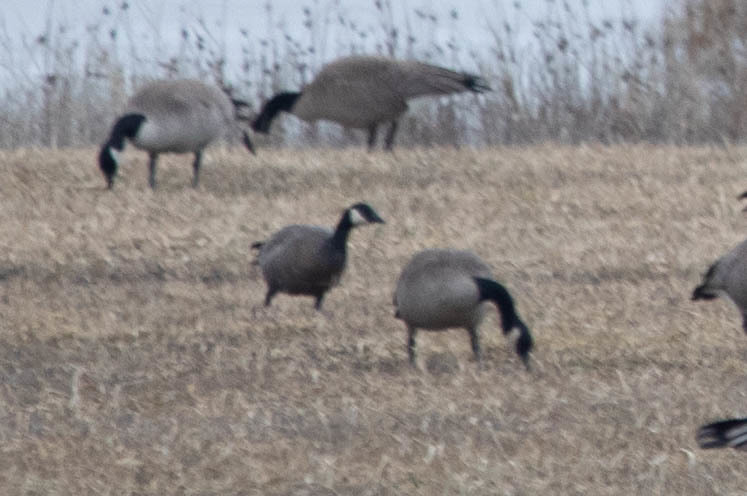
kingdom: Animalia
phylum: Chordata
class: Aves
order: Anseriformes
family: Anatidae
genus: Branta
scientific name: Branta hutchinsii
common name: Cackling goose
